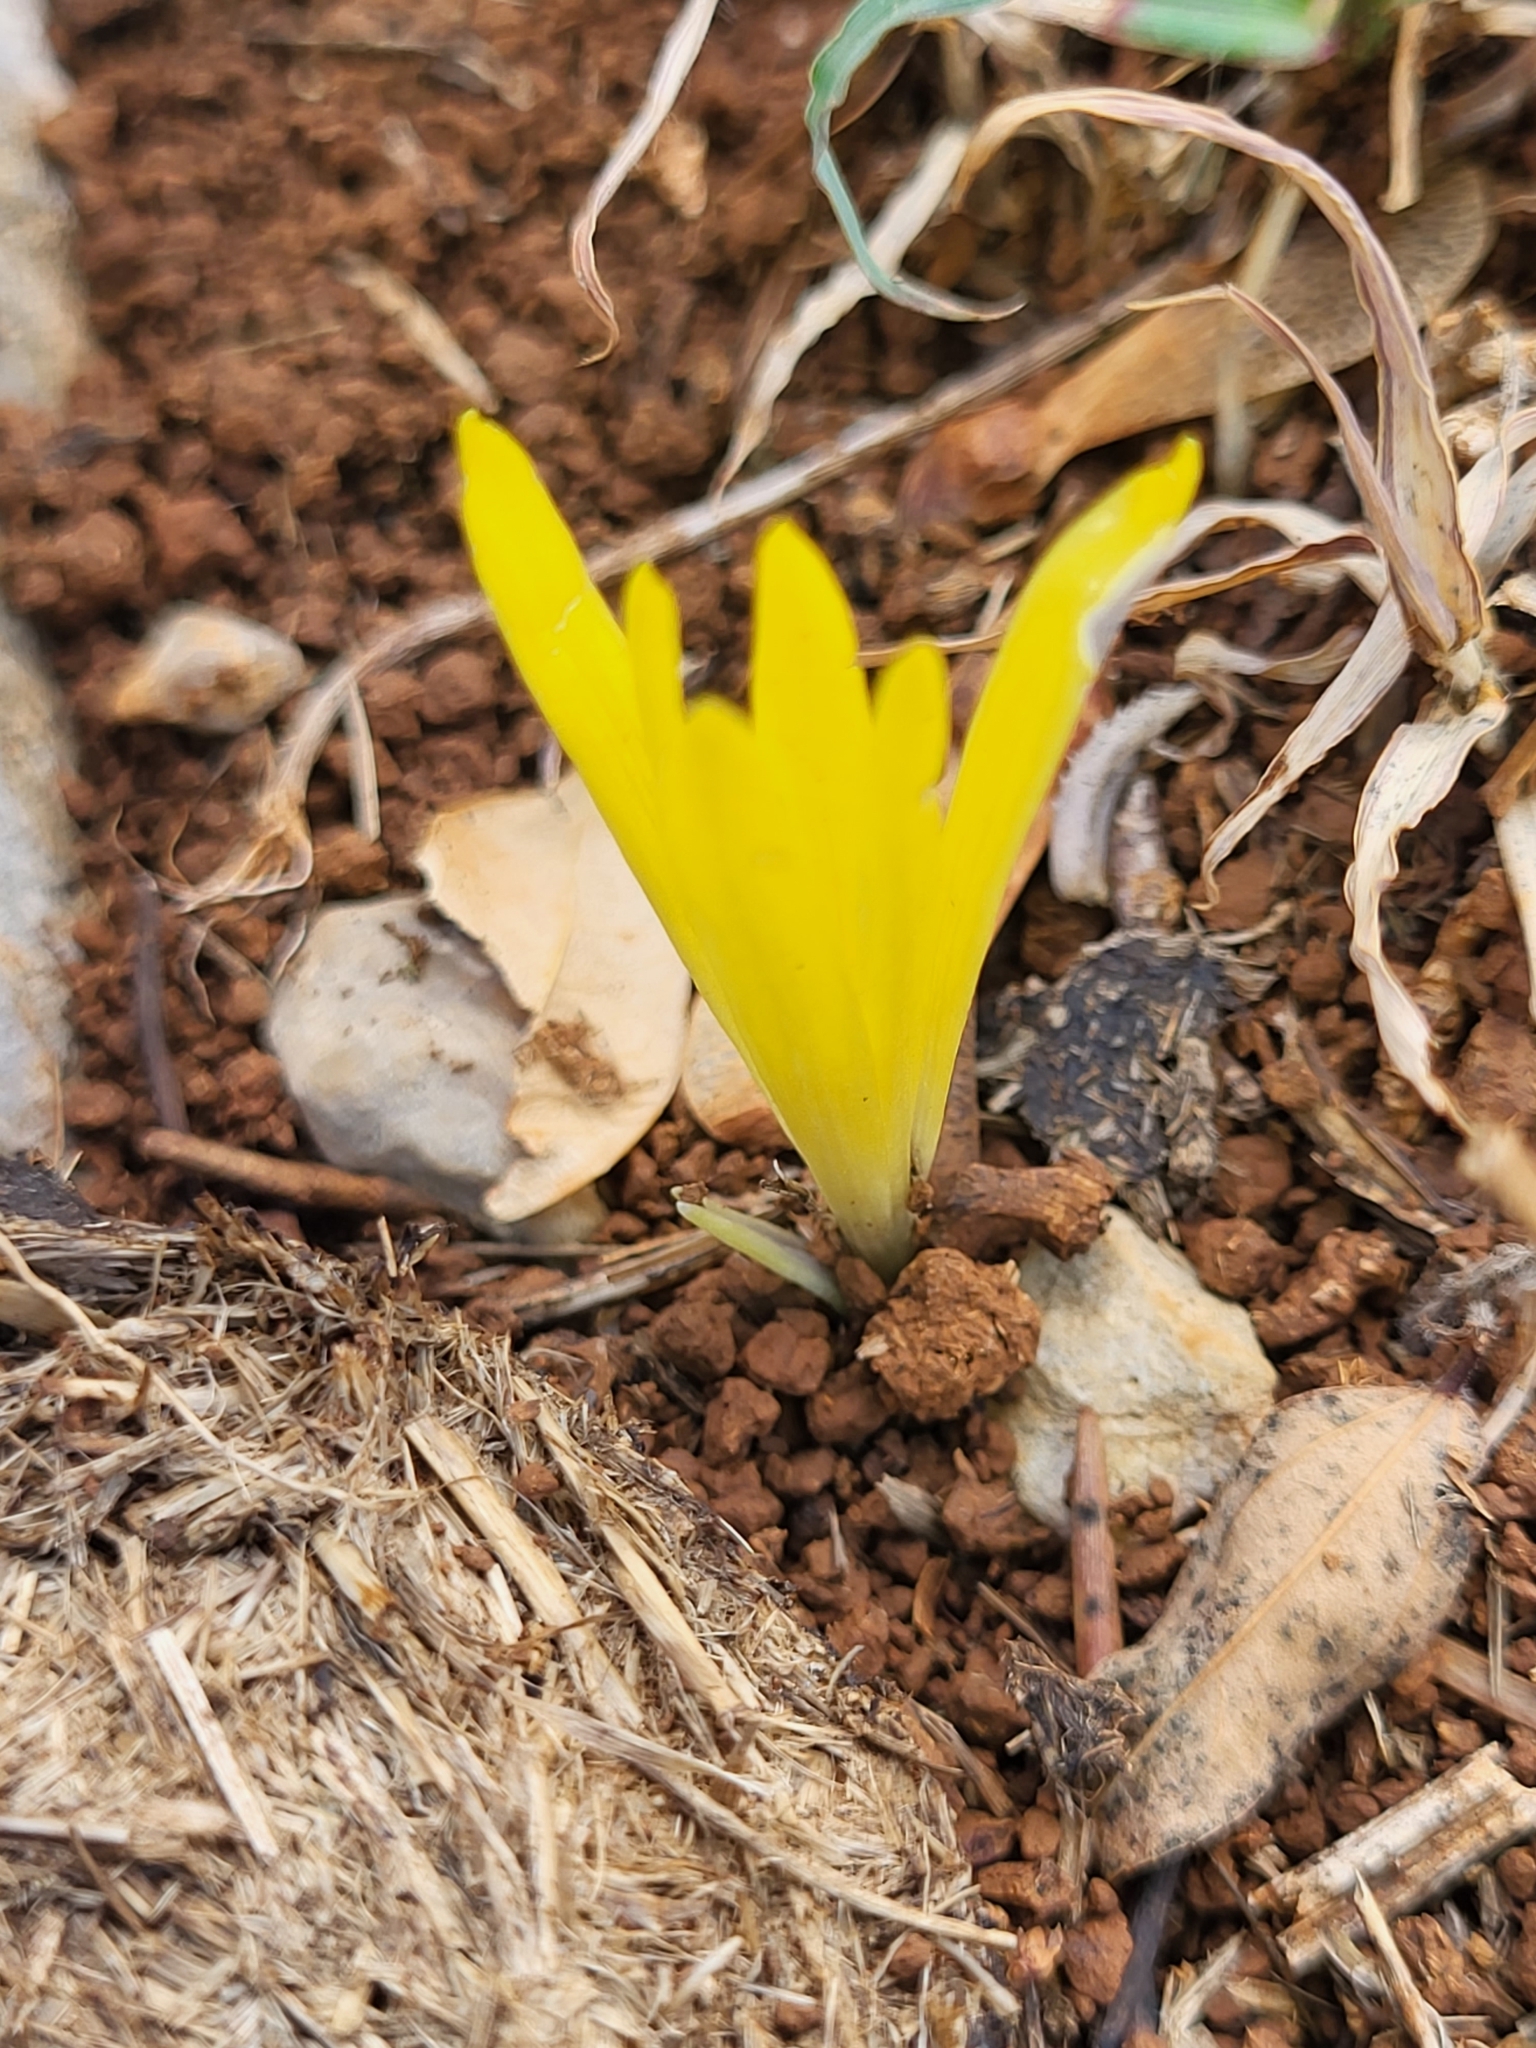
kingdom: Plantae
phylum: Tracheophyta
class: Liliopsida
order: Asparagales
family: Amaryllidaceae
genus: Sternbergia
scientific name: Sternbergia colchiciflora
